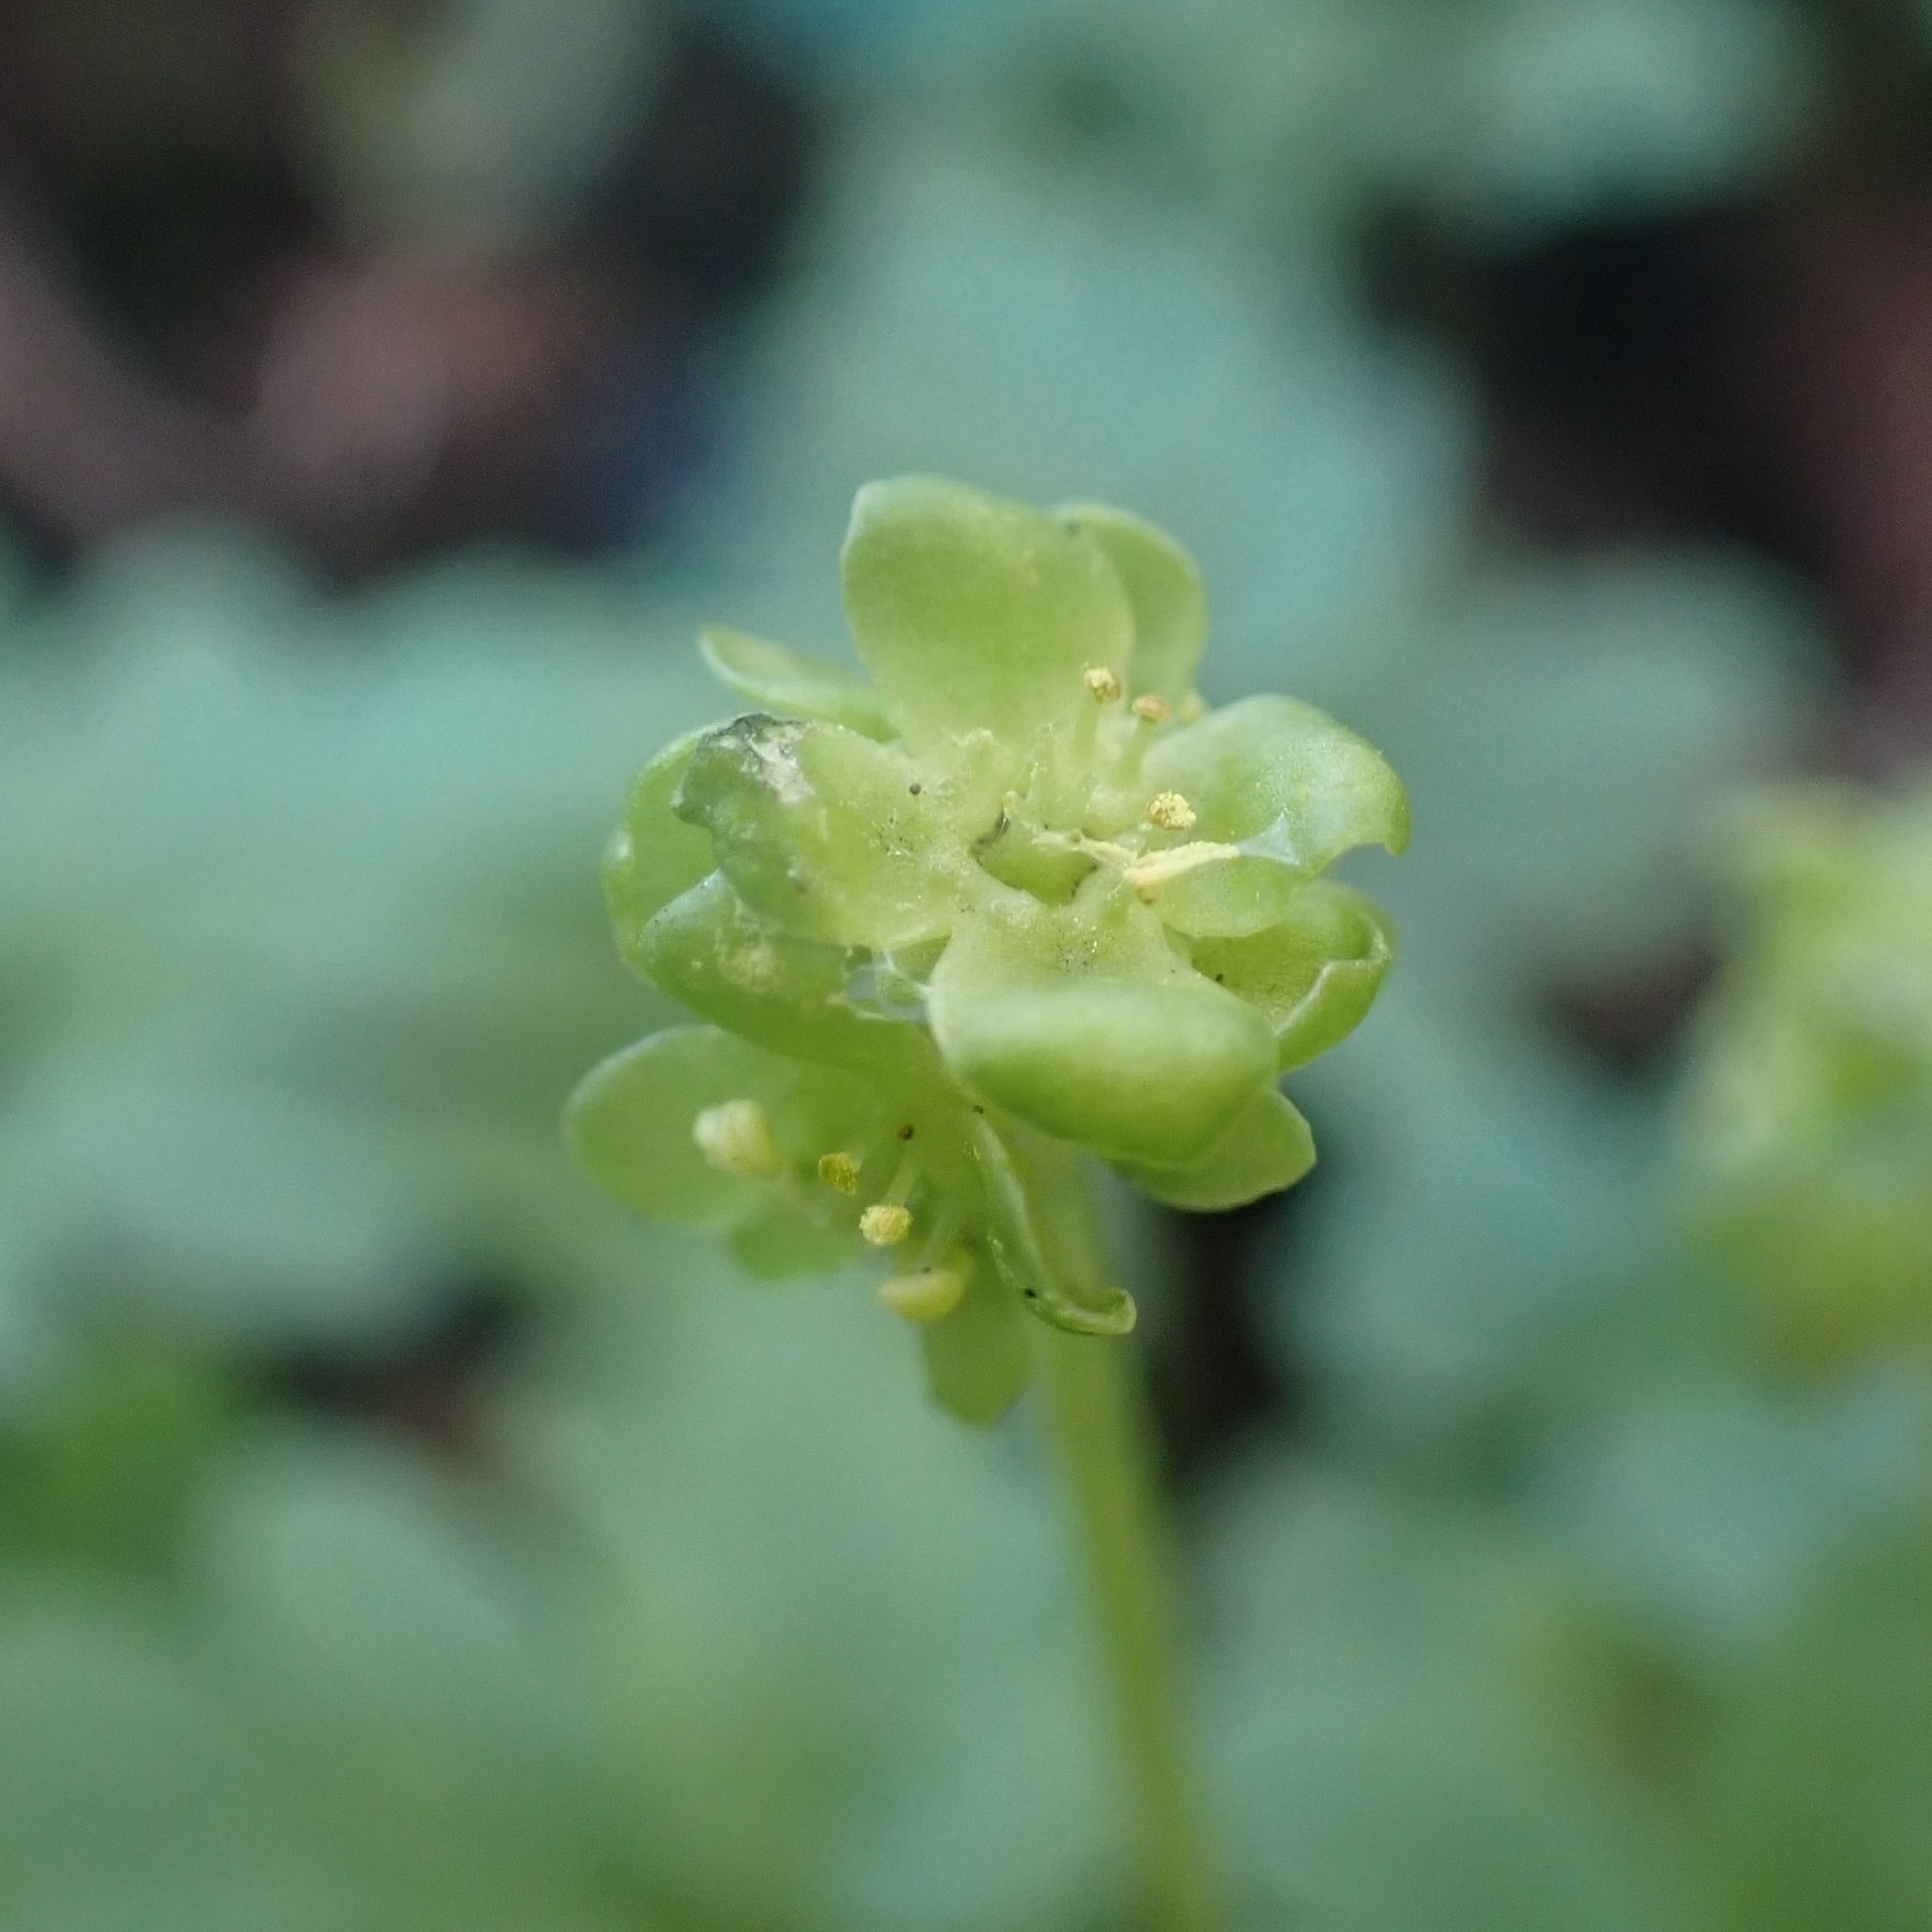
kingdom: Plantae
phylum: Tracheophyta
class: Magnoliopsida
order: Dipsacales
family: Viburnaceae
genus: Adoxa
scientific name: Adoxa moschatellina
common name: Moschatel
